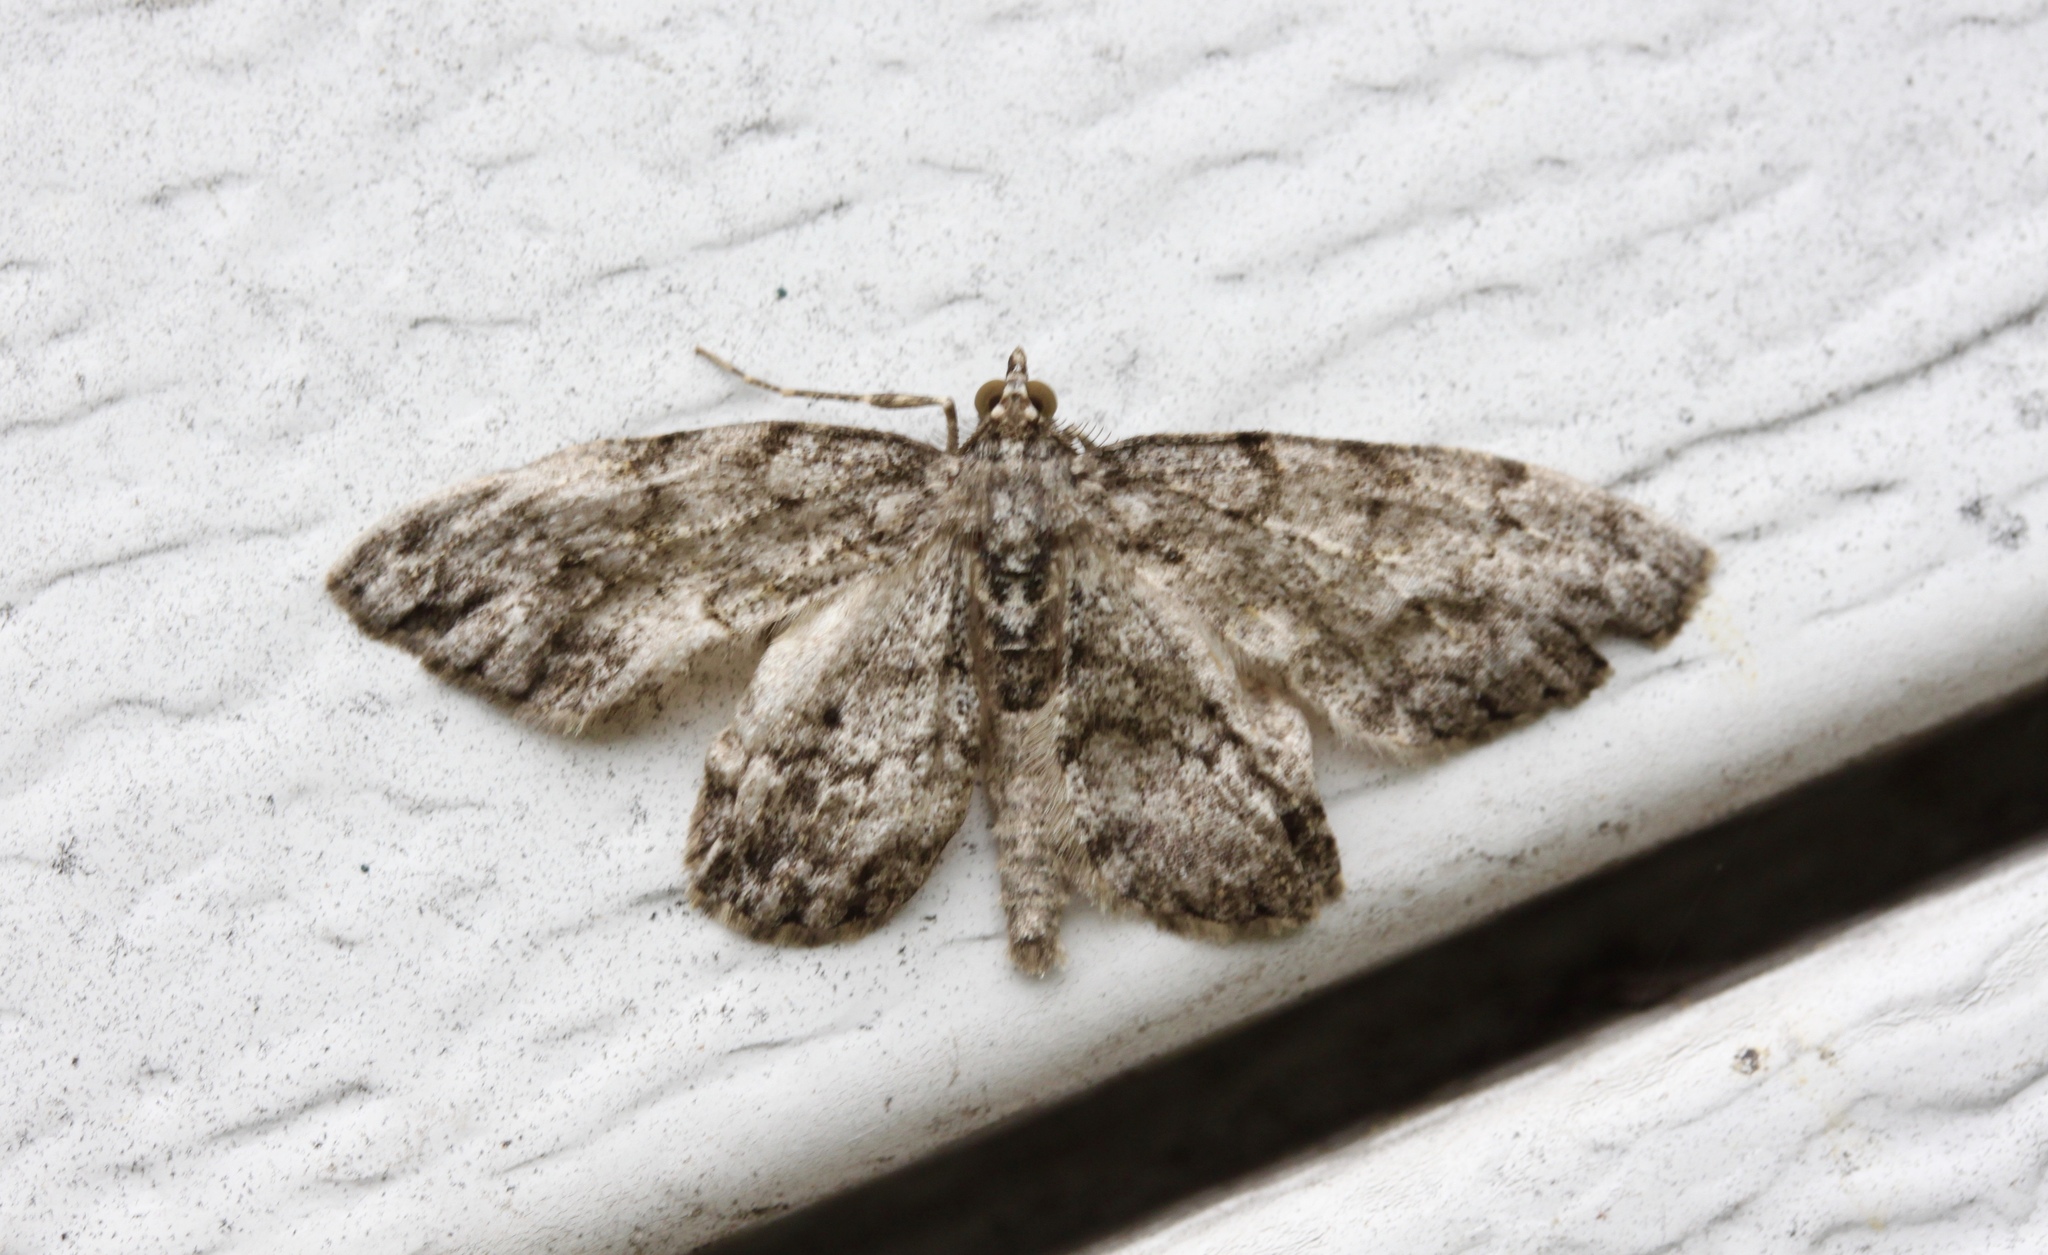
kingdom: Animalia
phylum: Arthropoda
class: Insecta
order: Lepidoptera
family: Geometridae
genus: Protoboarmia
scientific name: Protoboarmia porcelaria
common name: Porcelain gray
